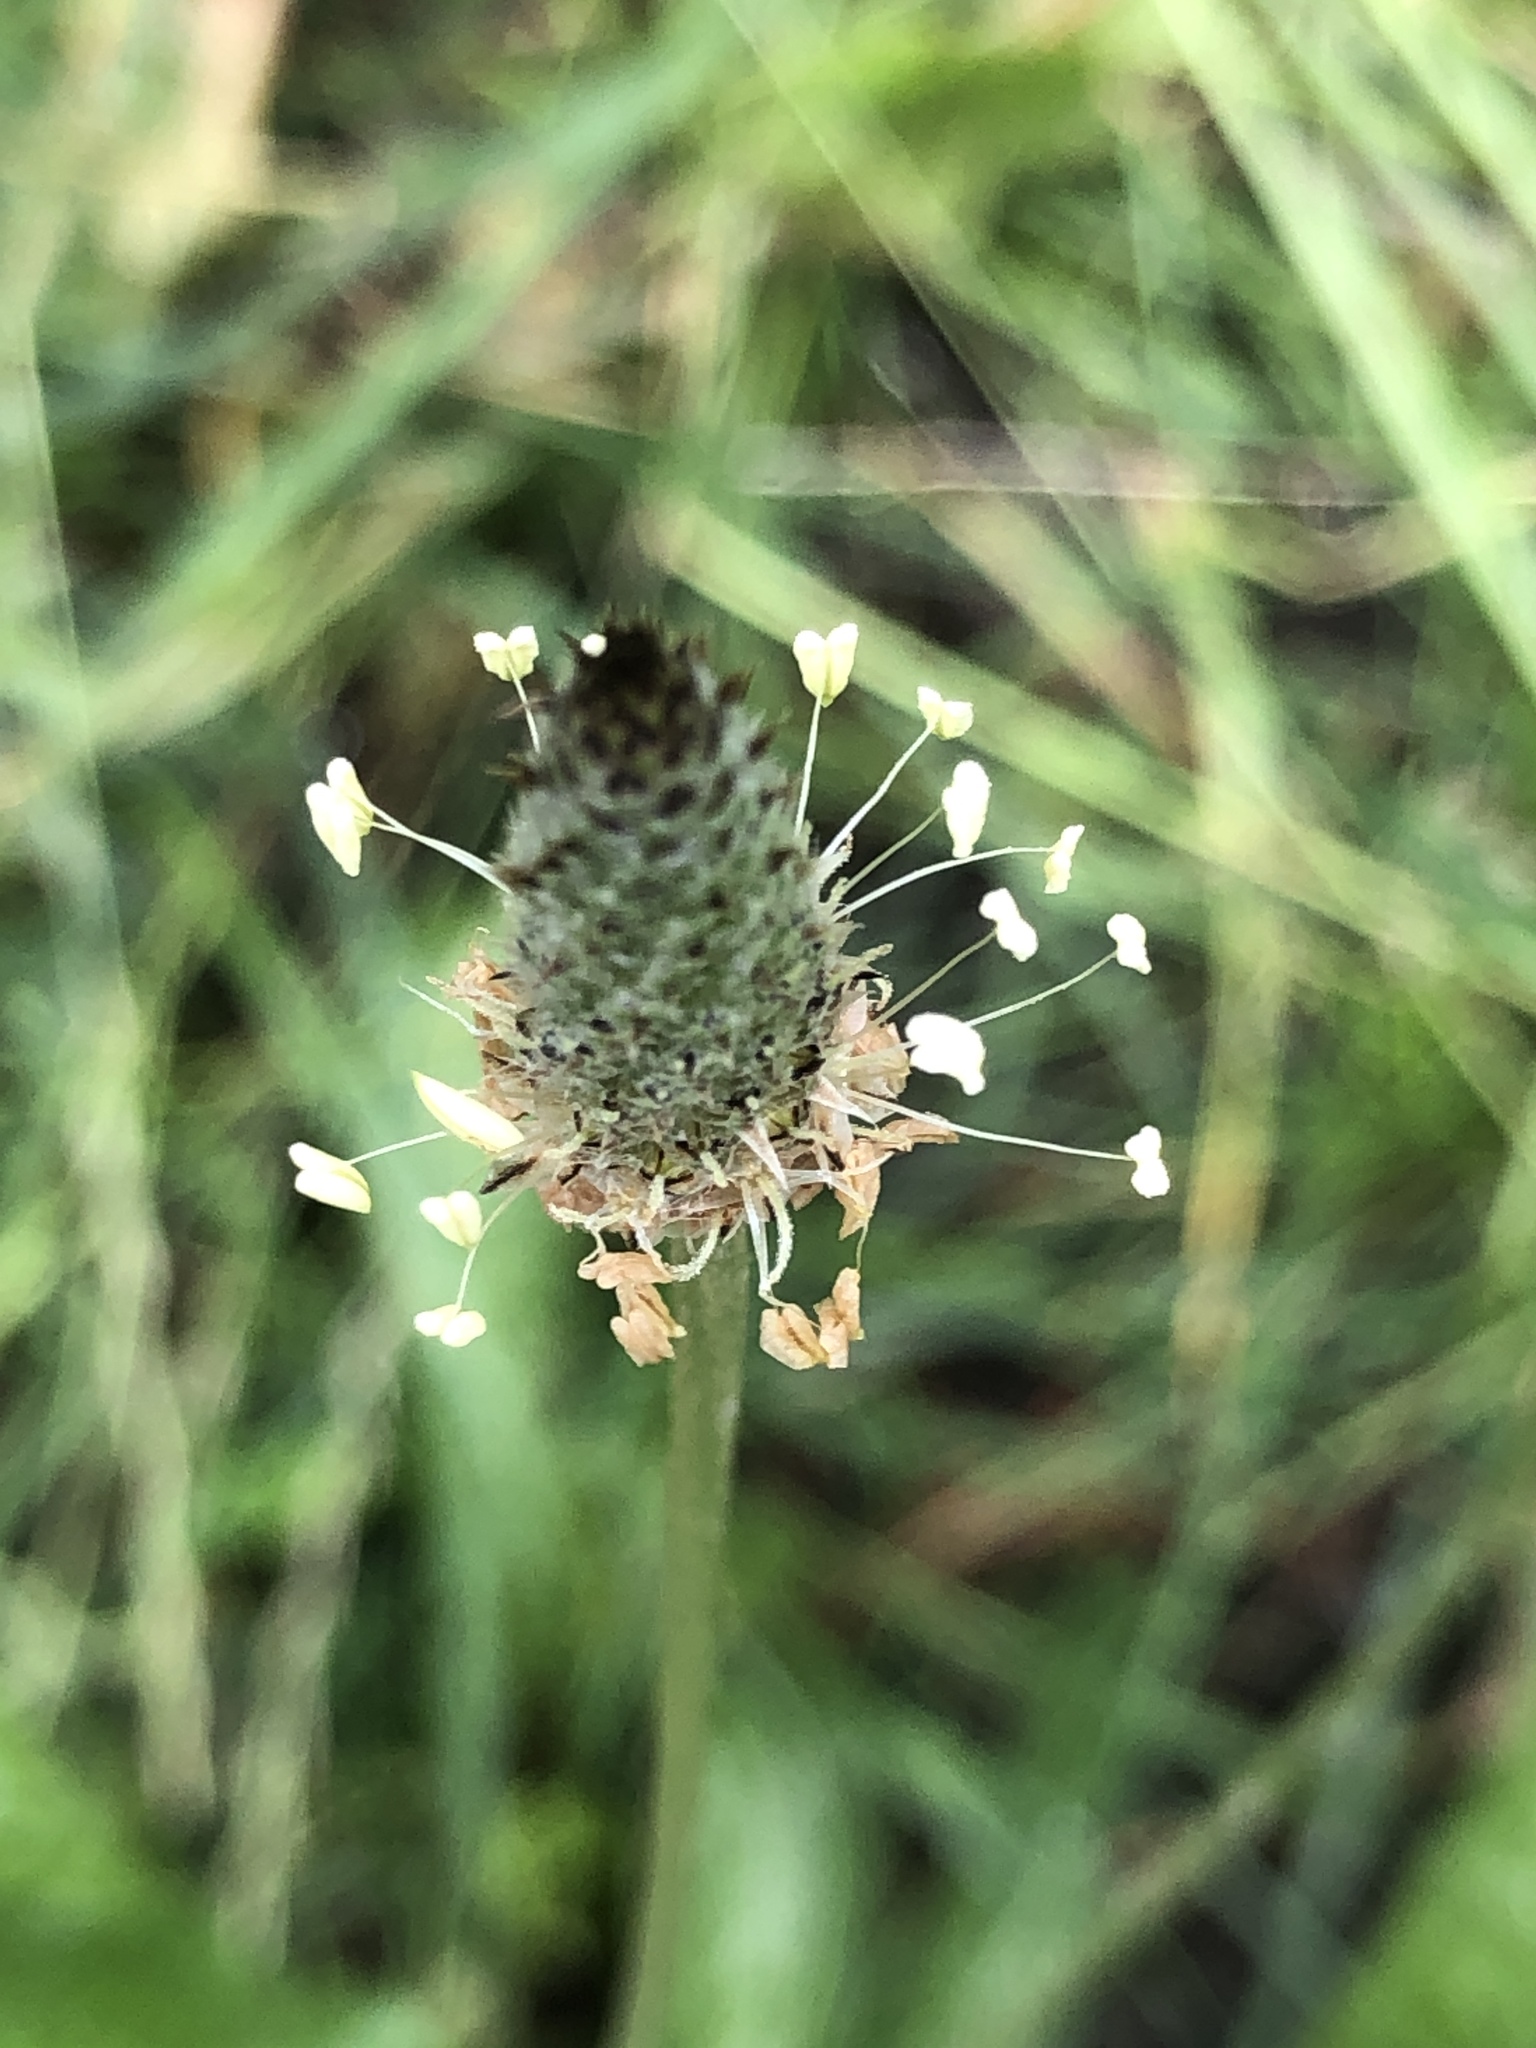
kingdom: Plantae
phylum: Tracheophyta
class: Magnoliopsida
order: Lamiales
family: Plantaginaceae
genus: Plantago
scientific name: Plantago lanceolata
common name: Ribwort plantain
